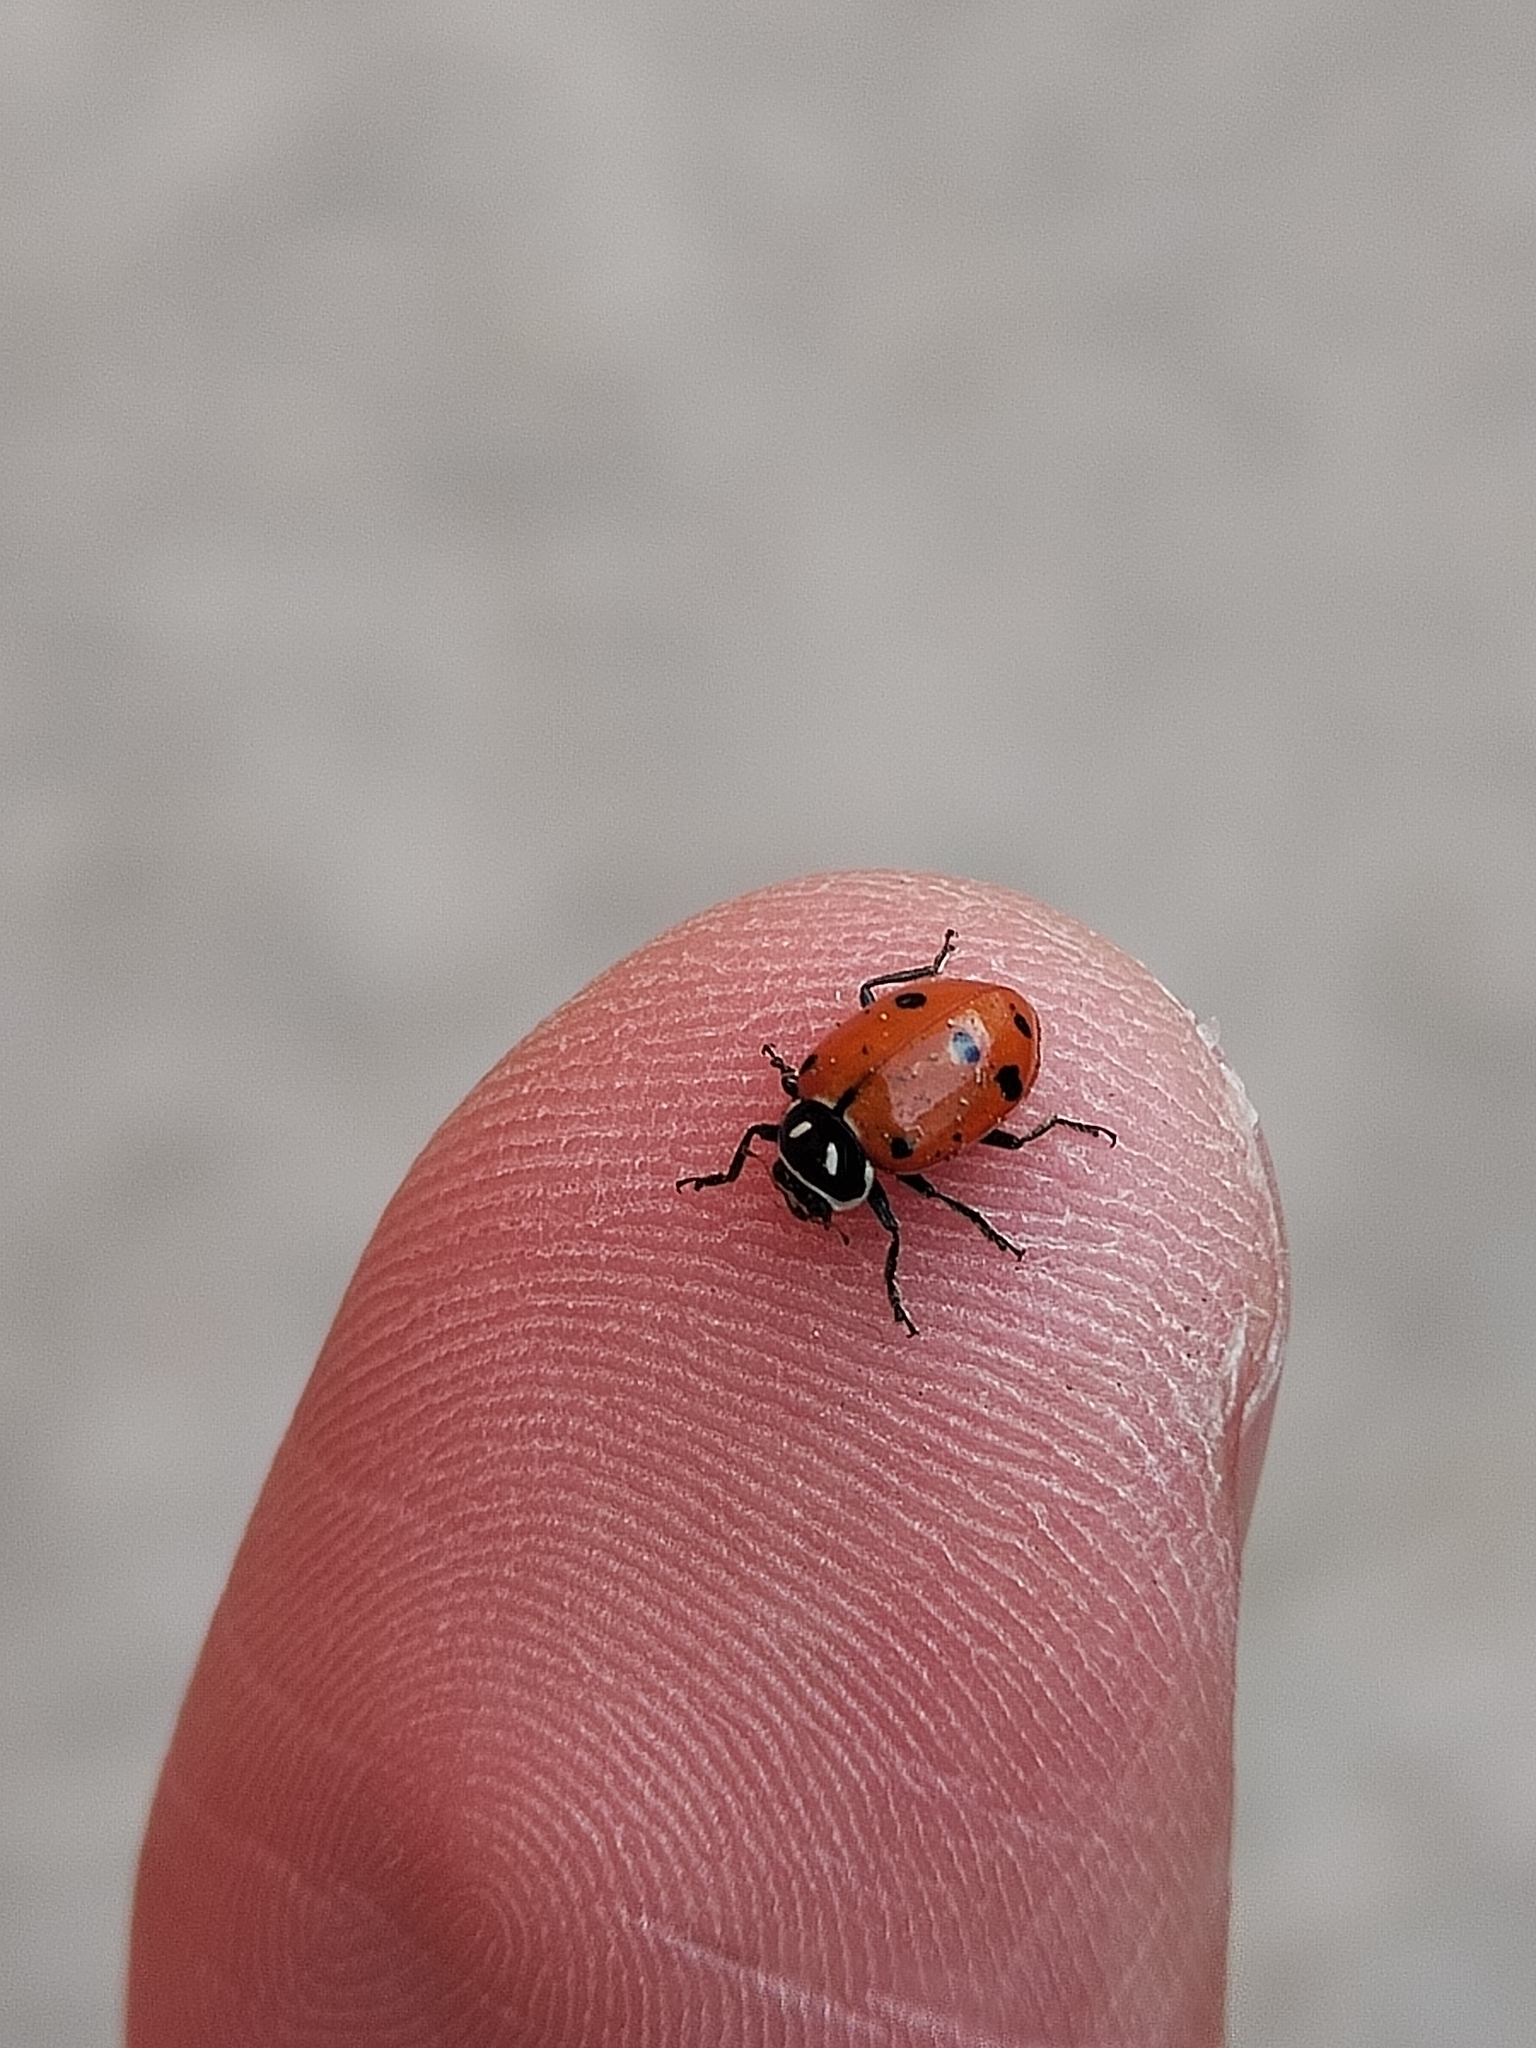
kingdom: Animalia
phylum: Arthropoda
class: Insecta
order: Coleoptera
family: Coccinellidae
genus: Hippodamia
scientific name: Hippodamia convergens
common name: Convergent lady beetle
